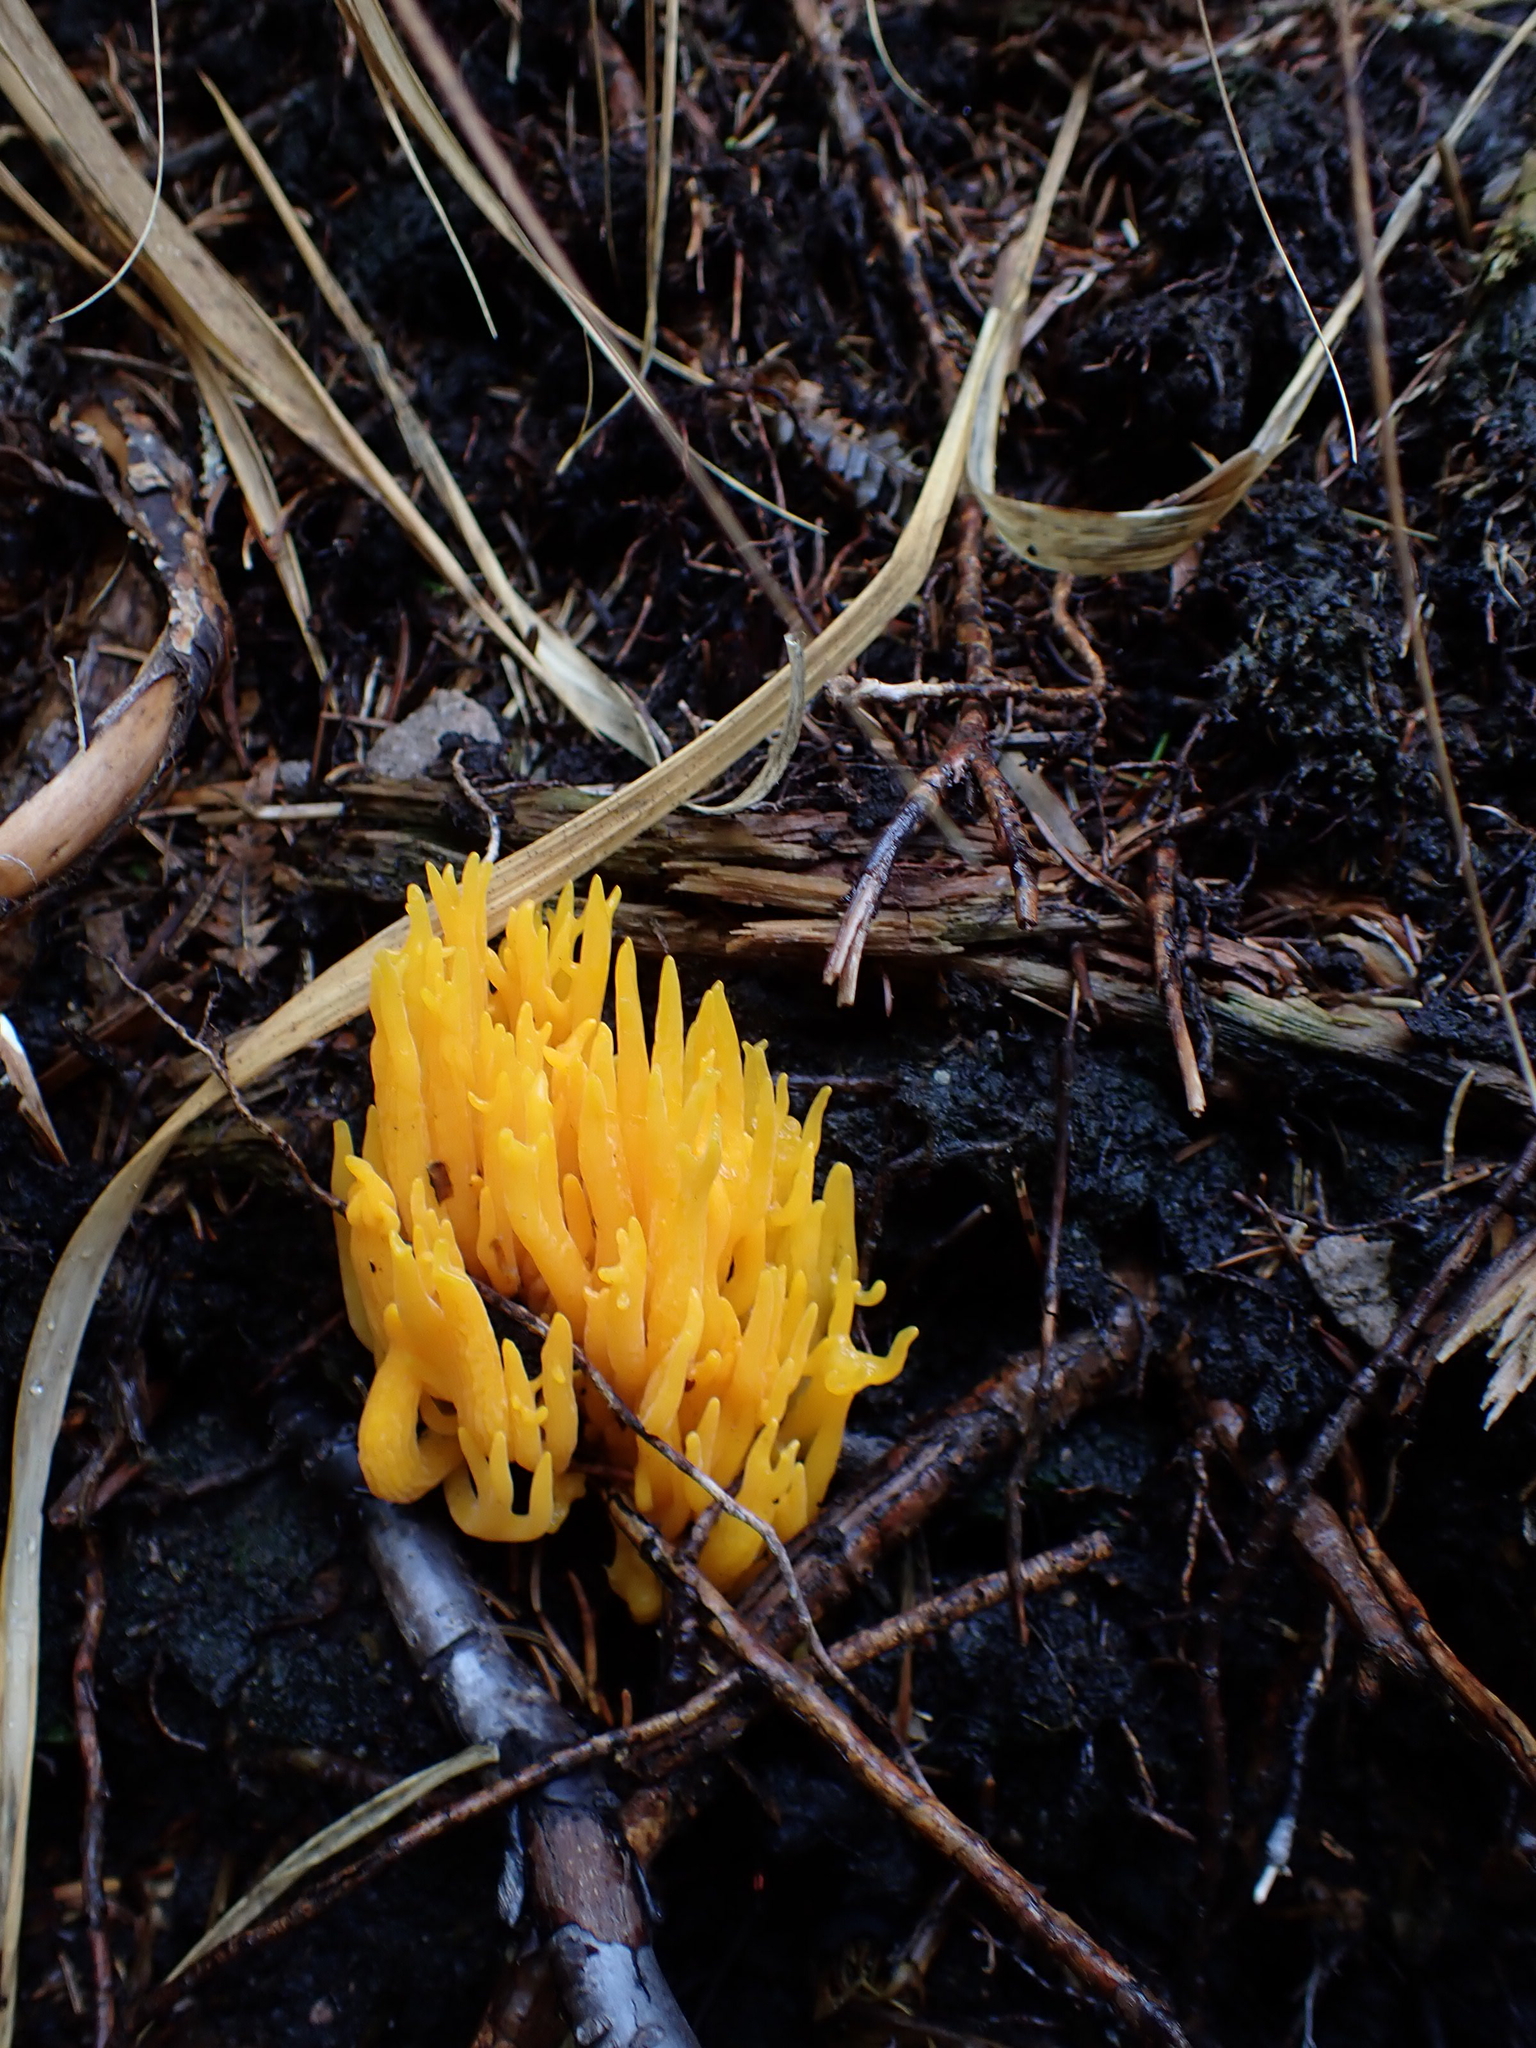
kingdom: Fungi
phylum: Basidiomycota
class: Dacrymycetes
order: Dacrymycetales
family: Dacrymycetaceae
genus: Calocera
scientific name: Calocera viscosa
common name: Yellow stagshorn
